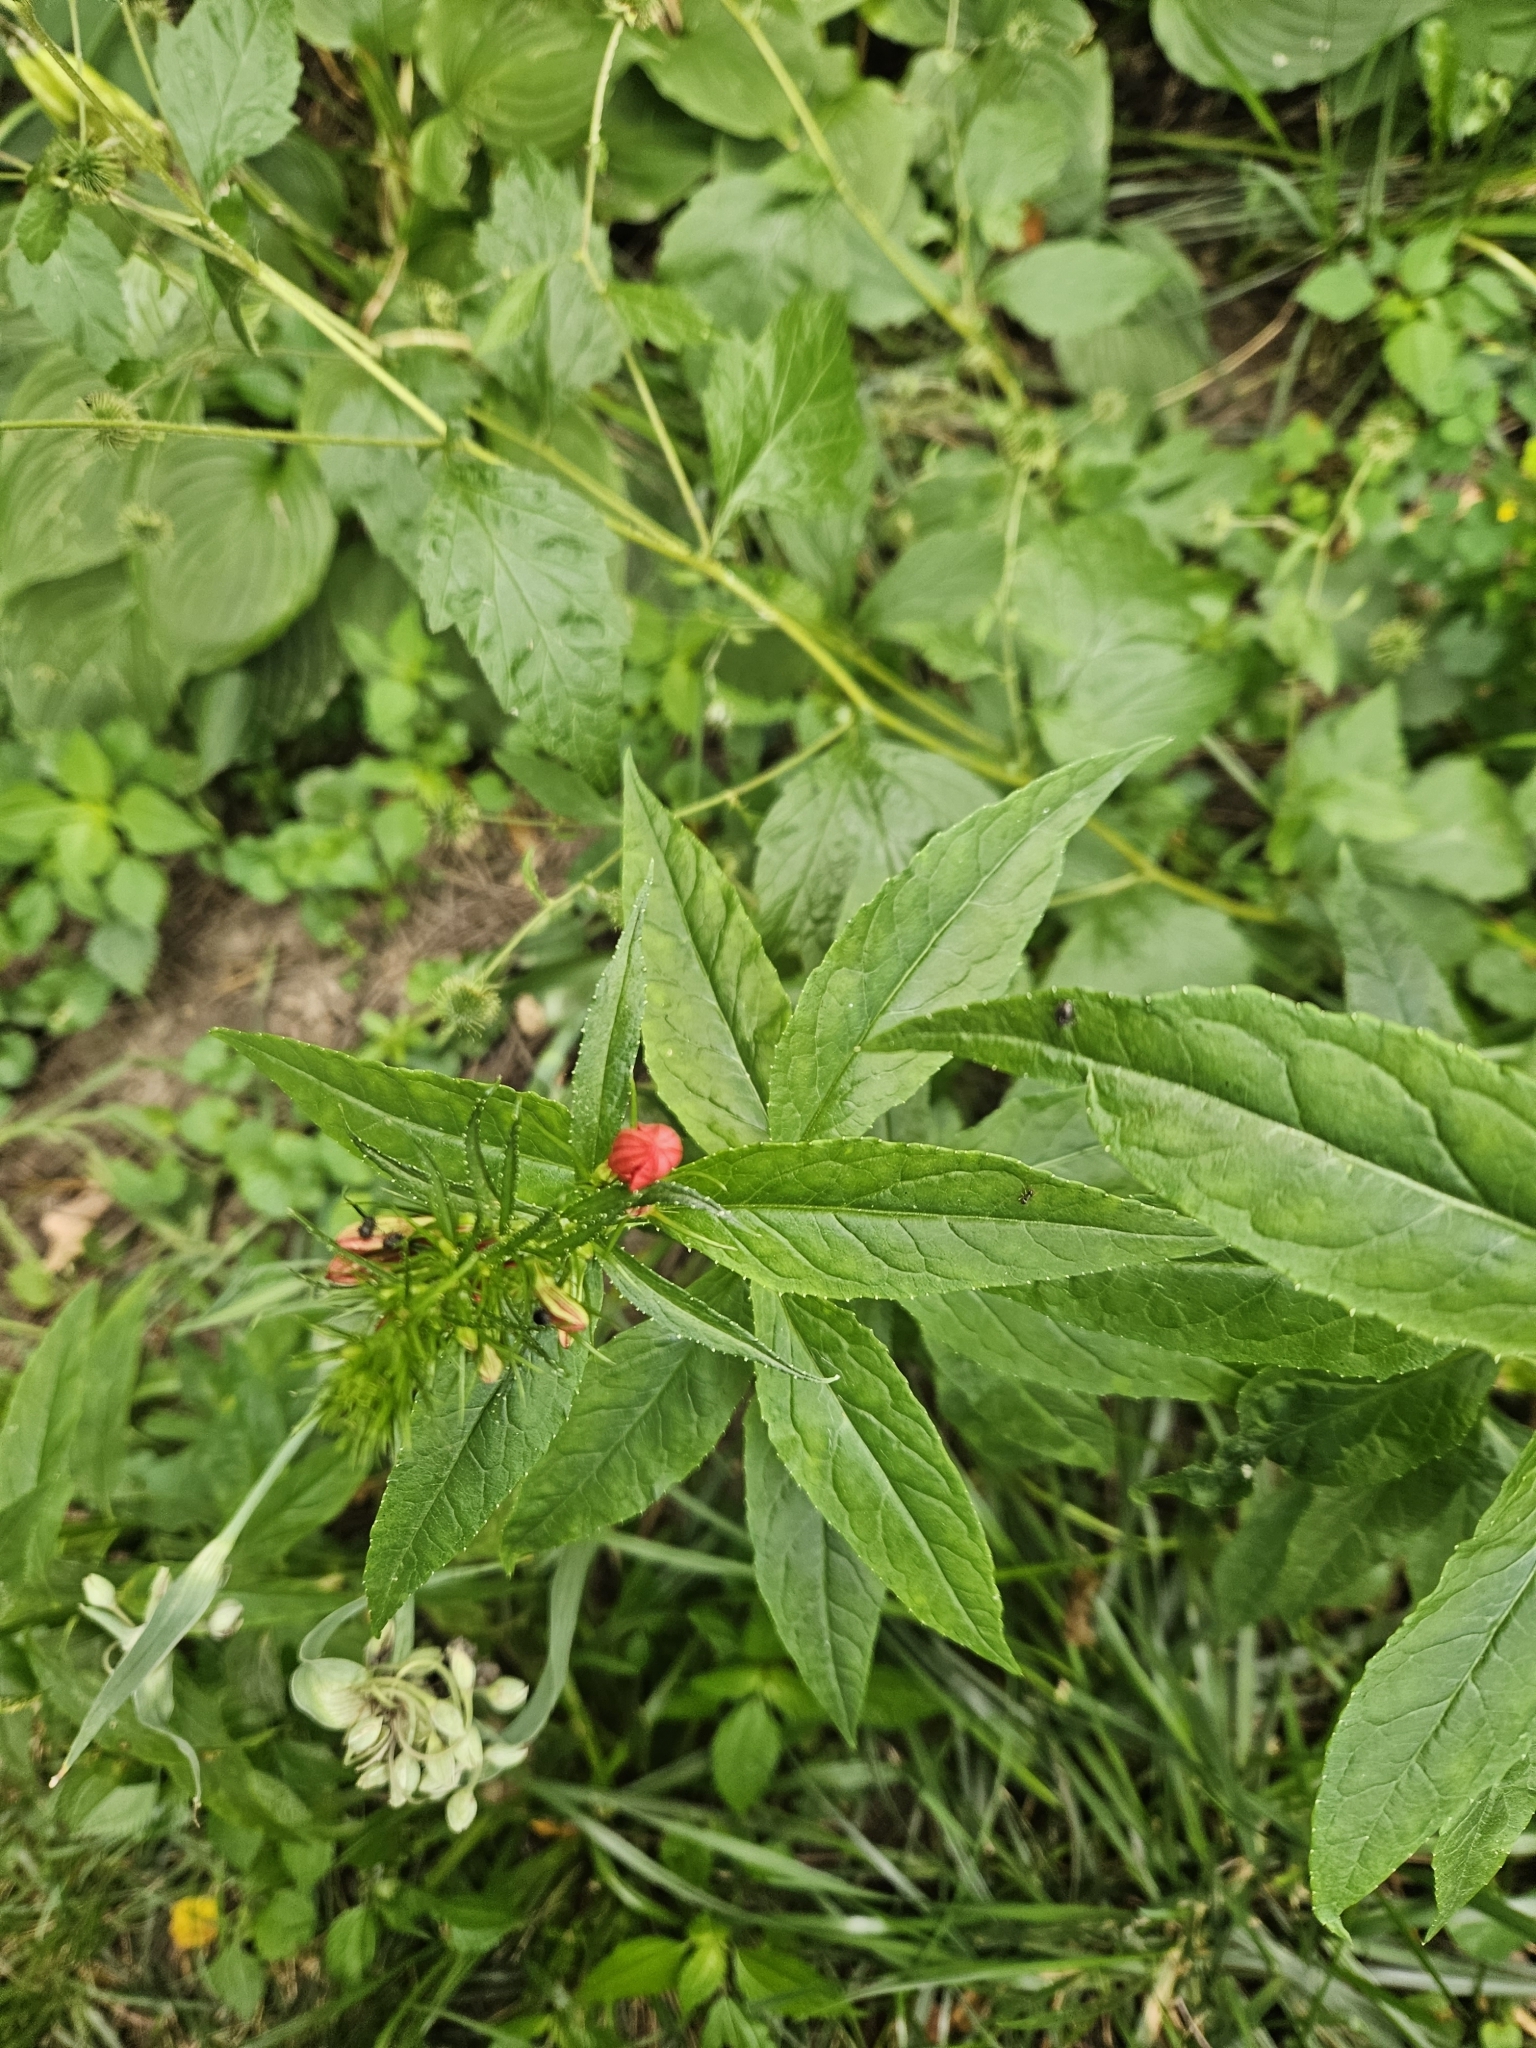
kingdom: Plantae
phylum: Tracheophyta
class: Magnoliopsida
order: Asterales
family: Campanulaceae
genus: Lobelia
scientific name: Lobelia cardinalis
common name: Cardinal flower
